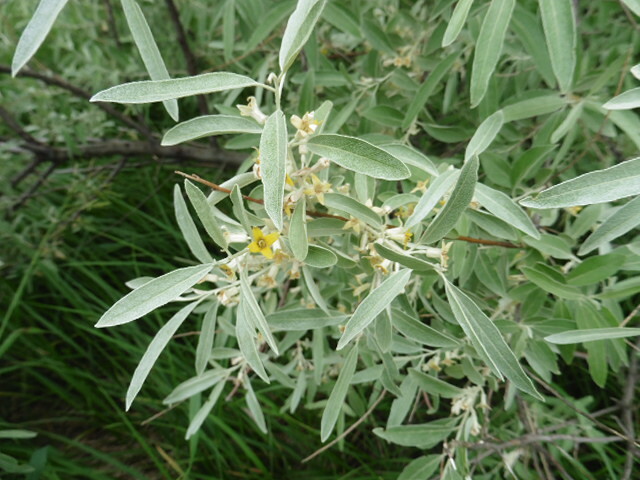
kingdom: Plantae
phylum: Tracheophyta
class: Magnoliopsida
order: Rosales
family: Elaeagnaceae
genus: Elaeagnus
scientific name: Elaeagnus angustifolia
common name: Russian olive
